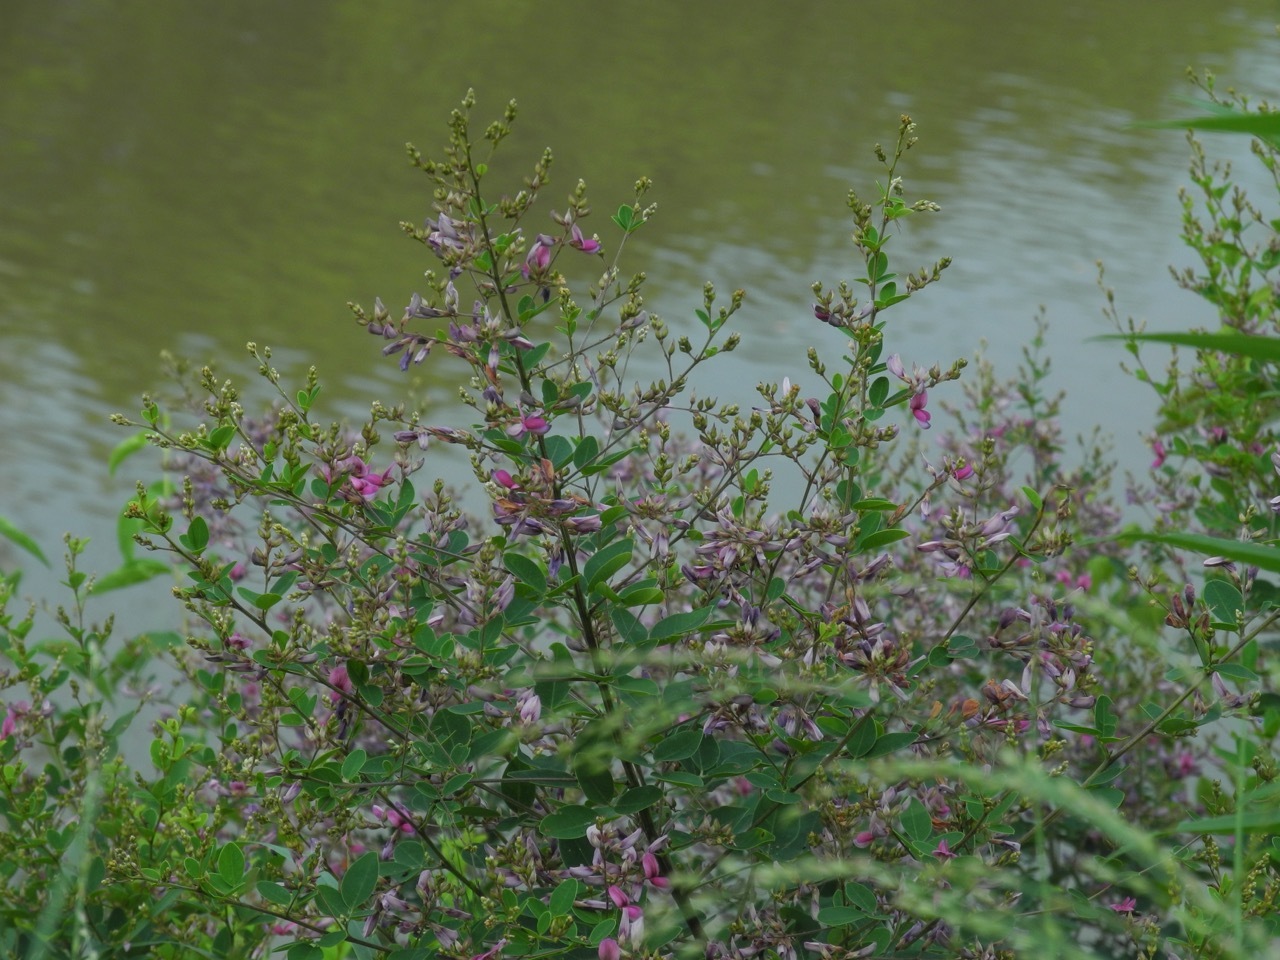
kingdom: Plantae
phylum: Tracheophyta
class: Magnoliopsida
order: Fabales
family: Fabaceae
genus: Lespedeza
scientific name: Lespedeza bicolor
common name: Shrub lespedeza
